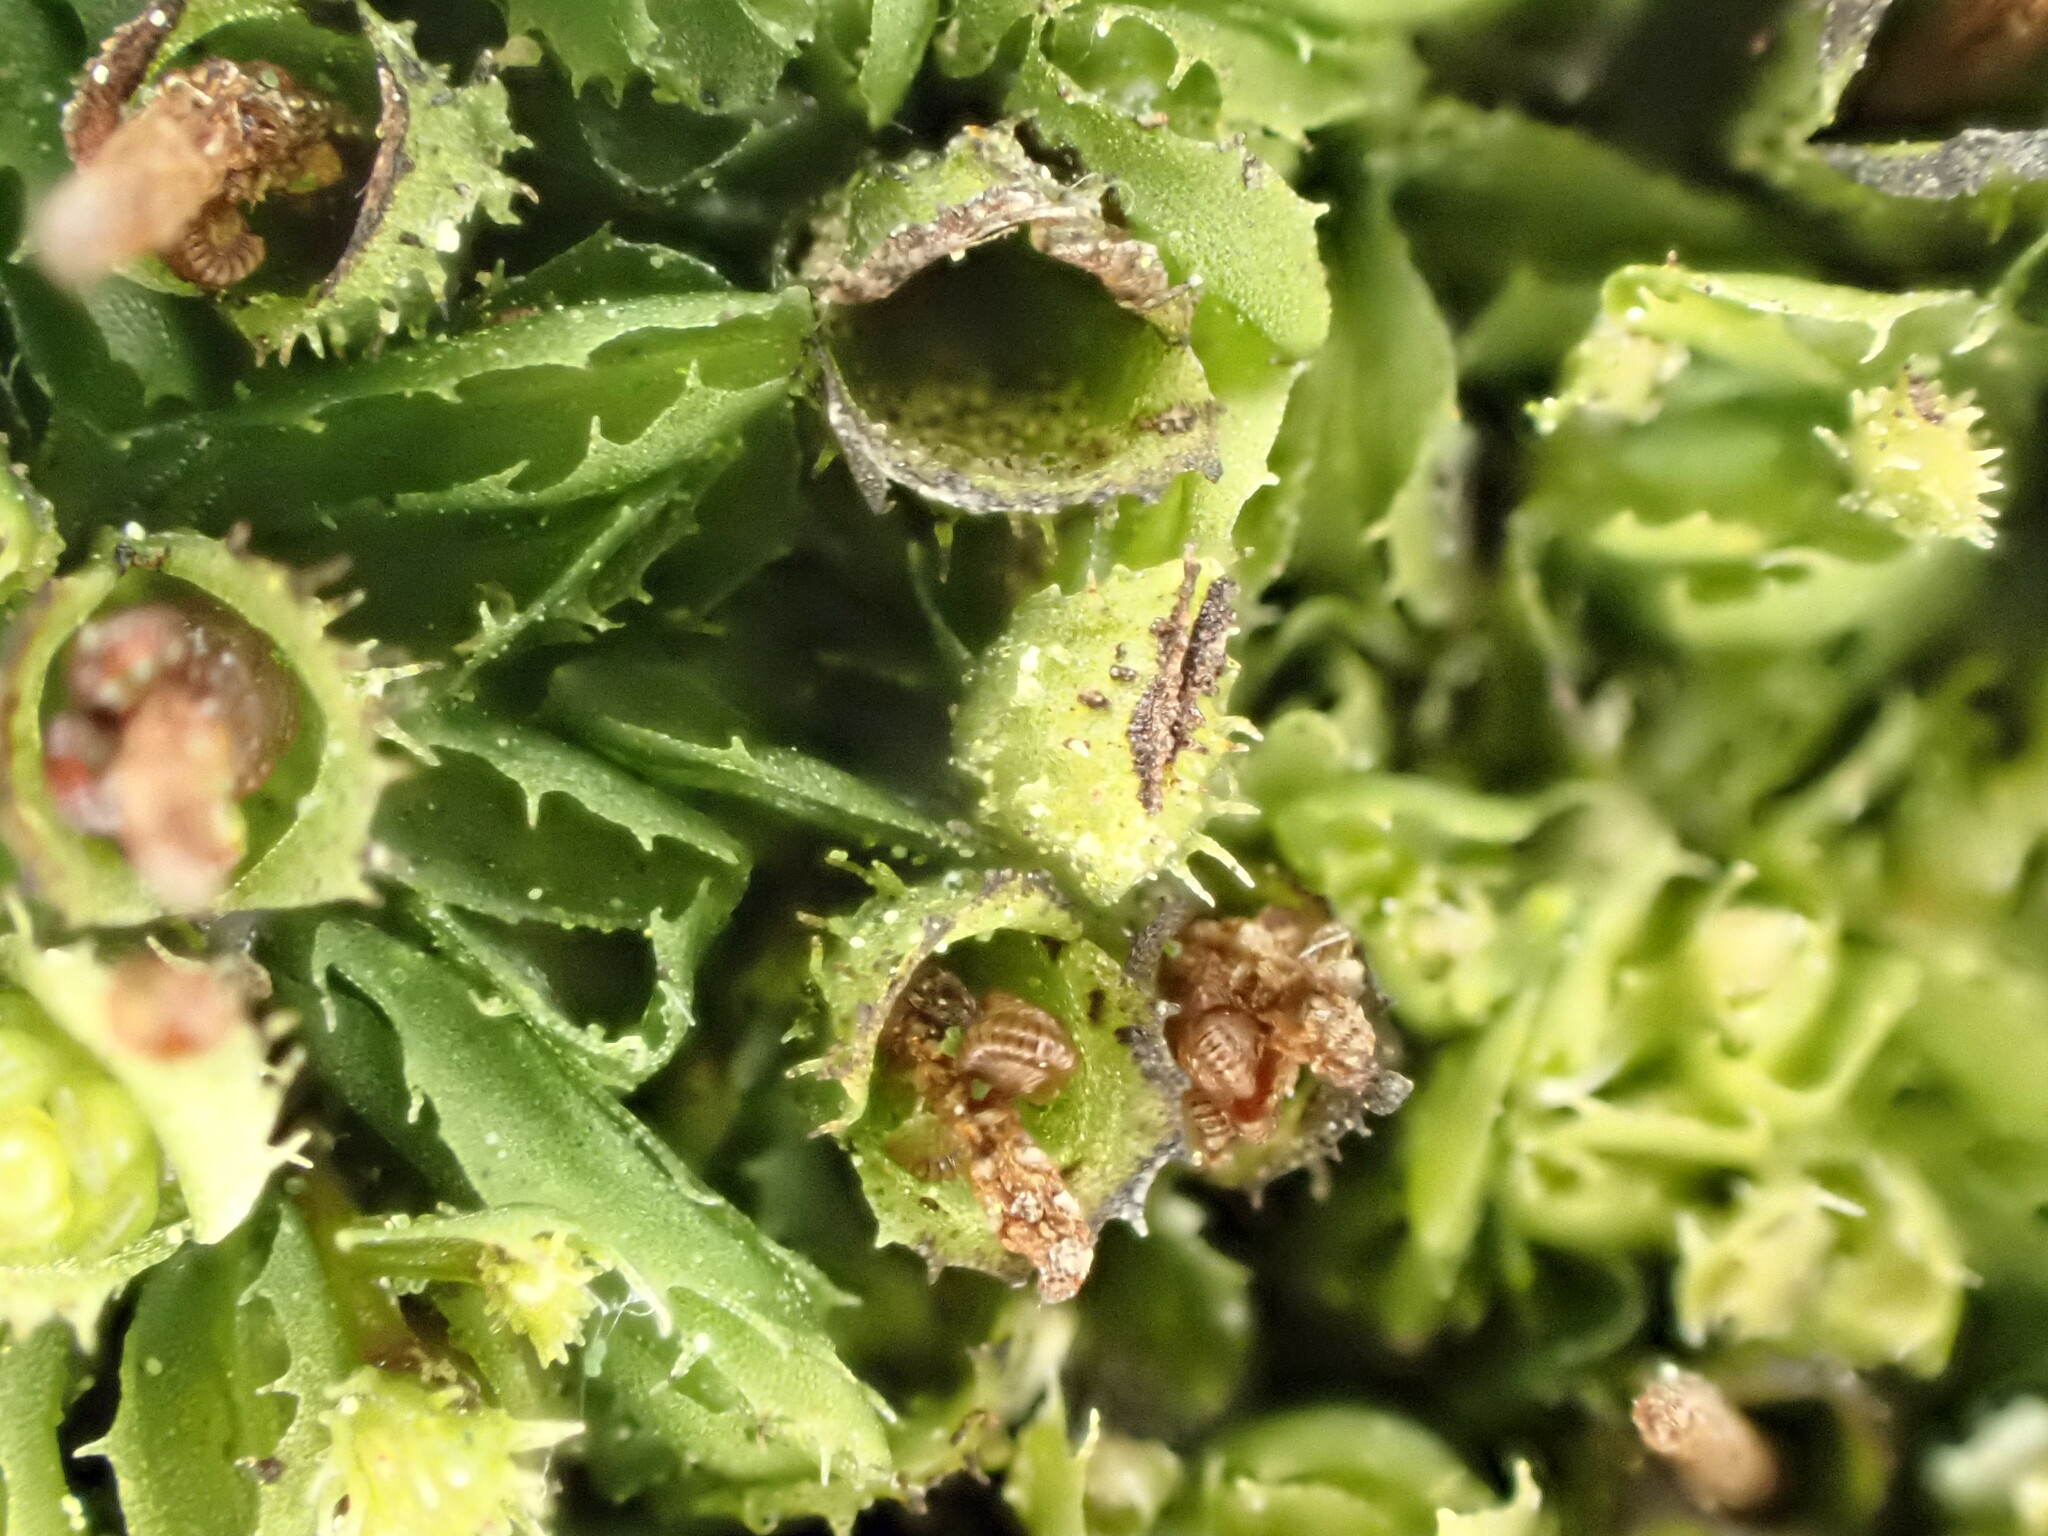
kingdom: Plantae
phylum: Tracheophyta
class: Polypodiopsida
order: Hymenophyllales
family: Hymenophyllaceae
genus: Hymenophyllum
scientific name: Hymenophyllum minimum
